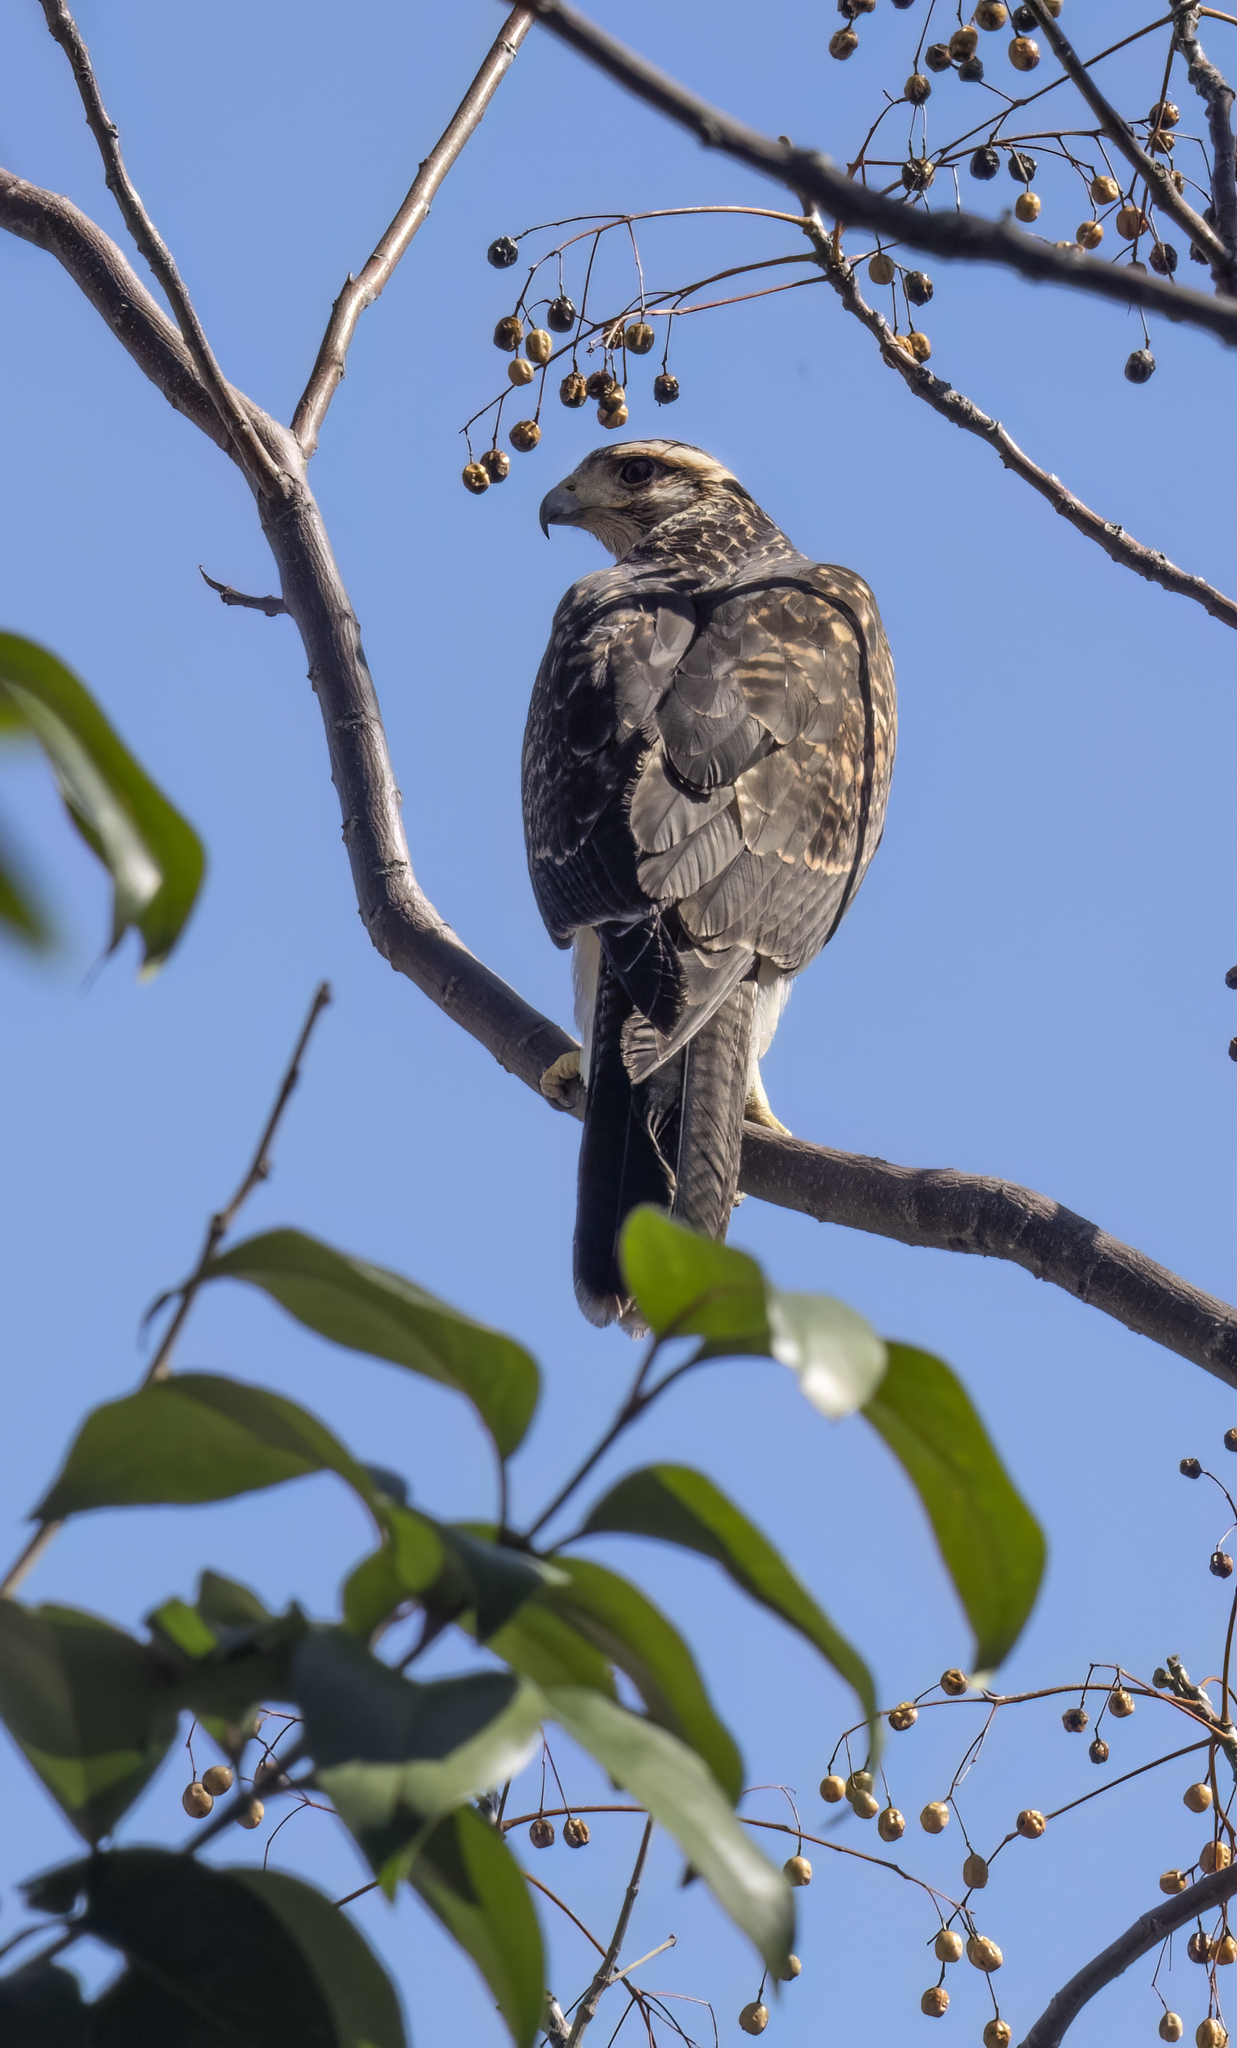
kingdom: Animalia
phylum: Chordata
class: Aves
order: Accipitriformes
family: Accipitridae
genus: Parabuteo
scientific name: Parabuteo unicinctus
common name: Harris's hawk
